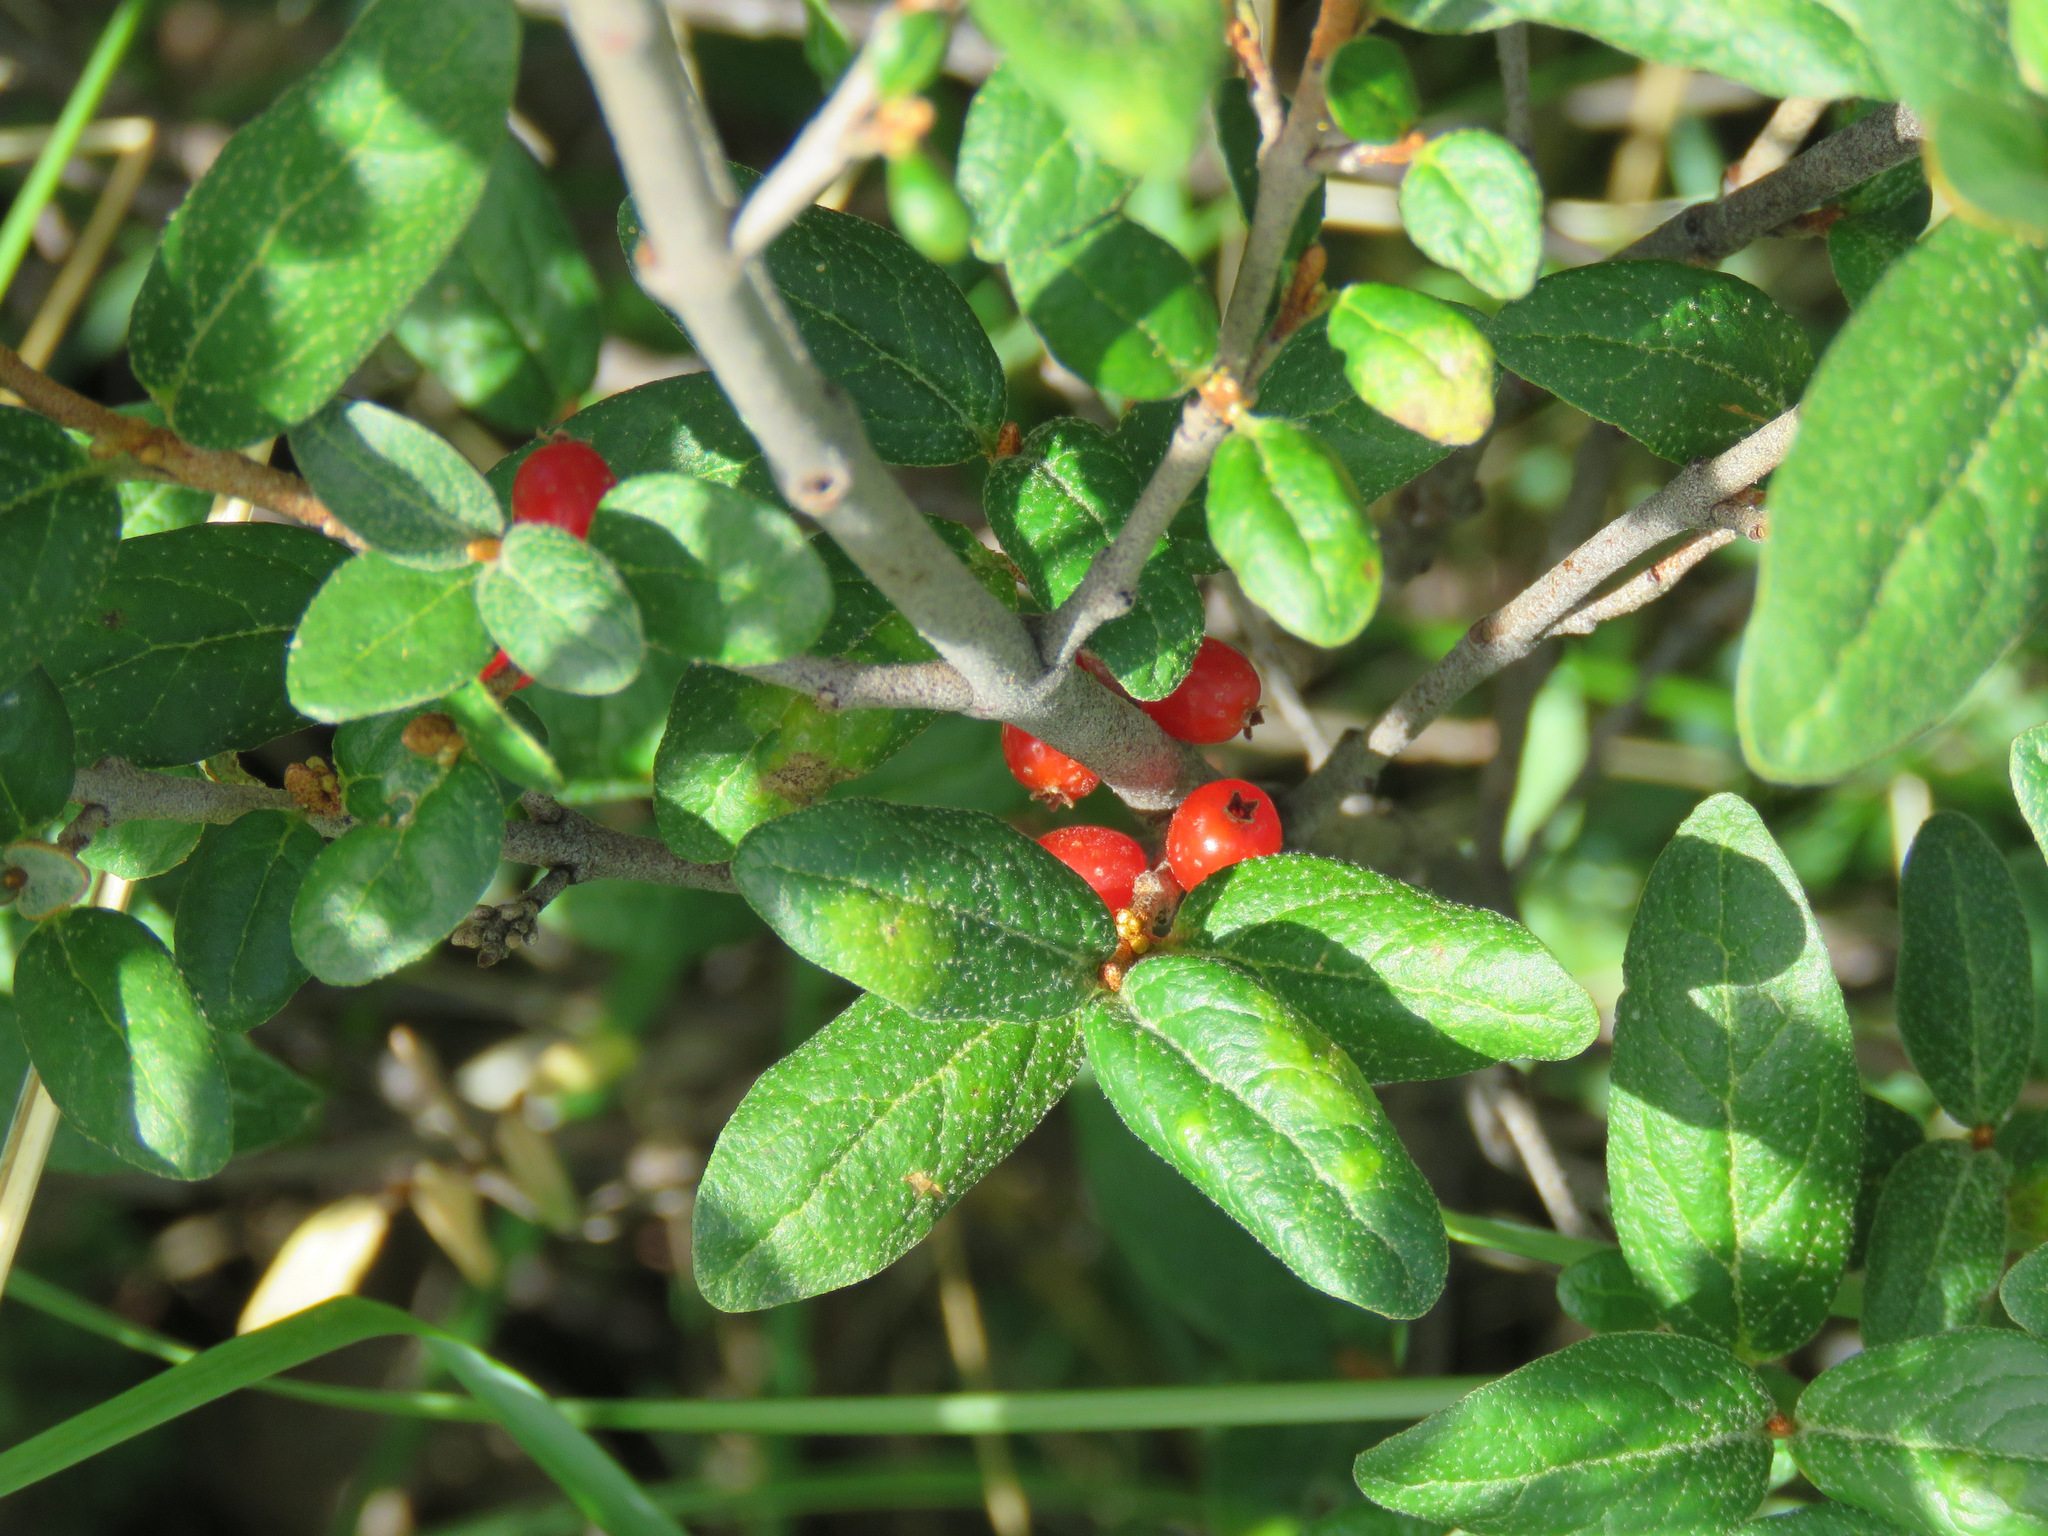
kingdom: Plantae
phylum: Tracheophyta
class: Magnoliopsida
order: Rosales
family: Elaeagnaceae
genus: Shepherdia
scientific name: Shepherdia canadensis
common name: Soapberry
